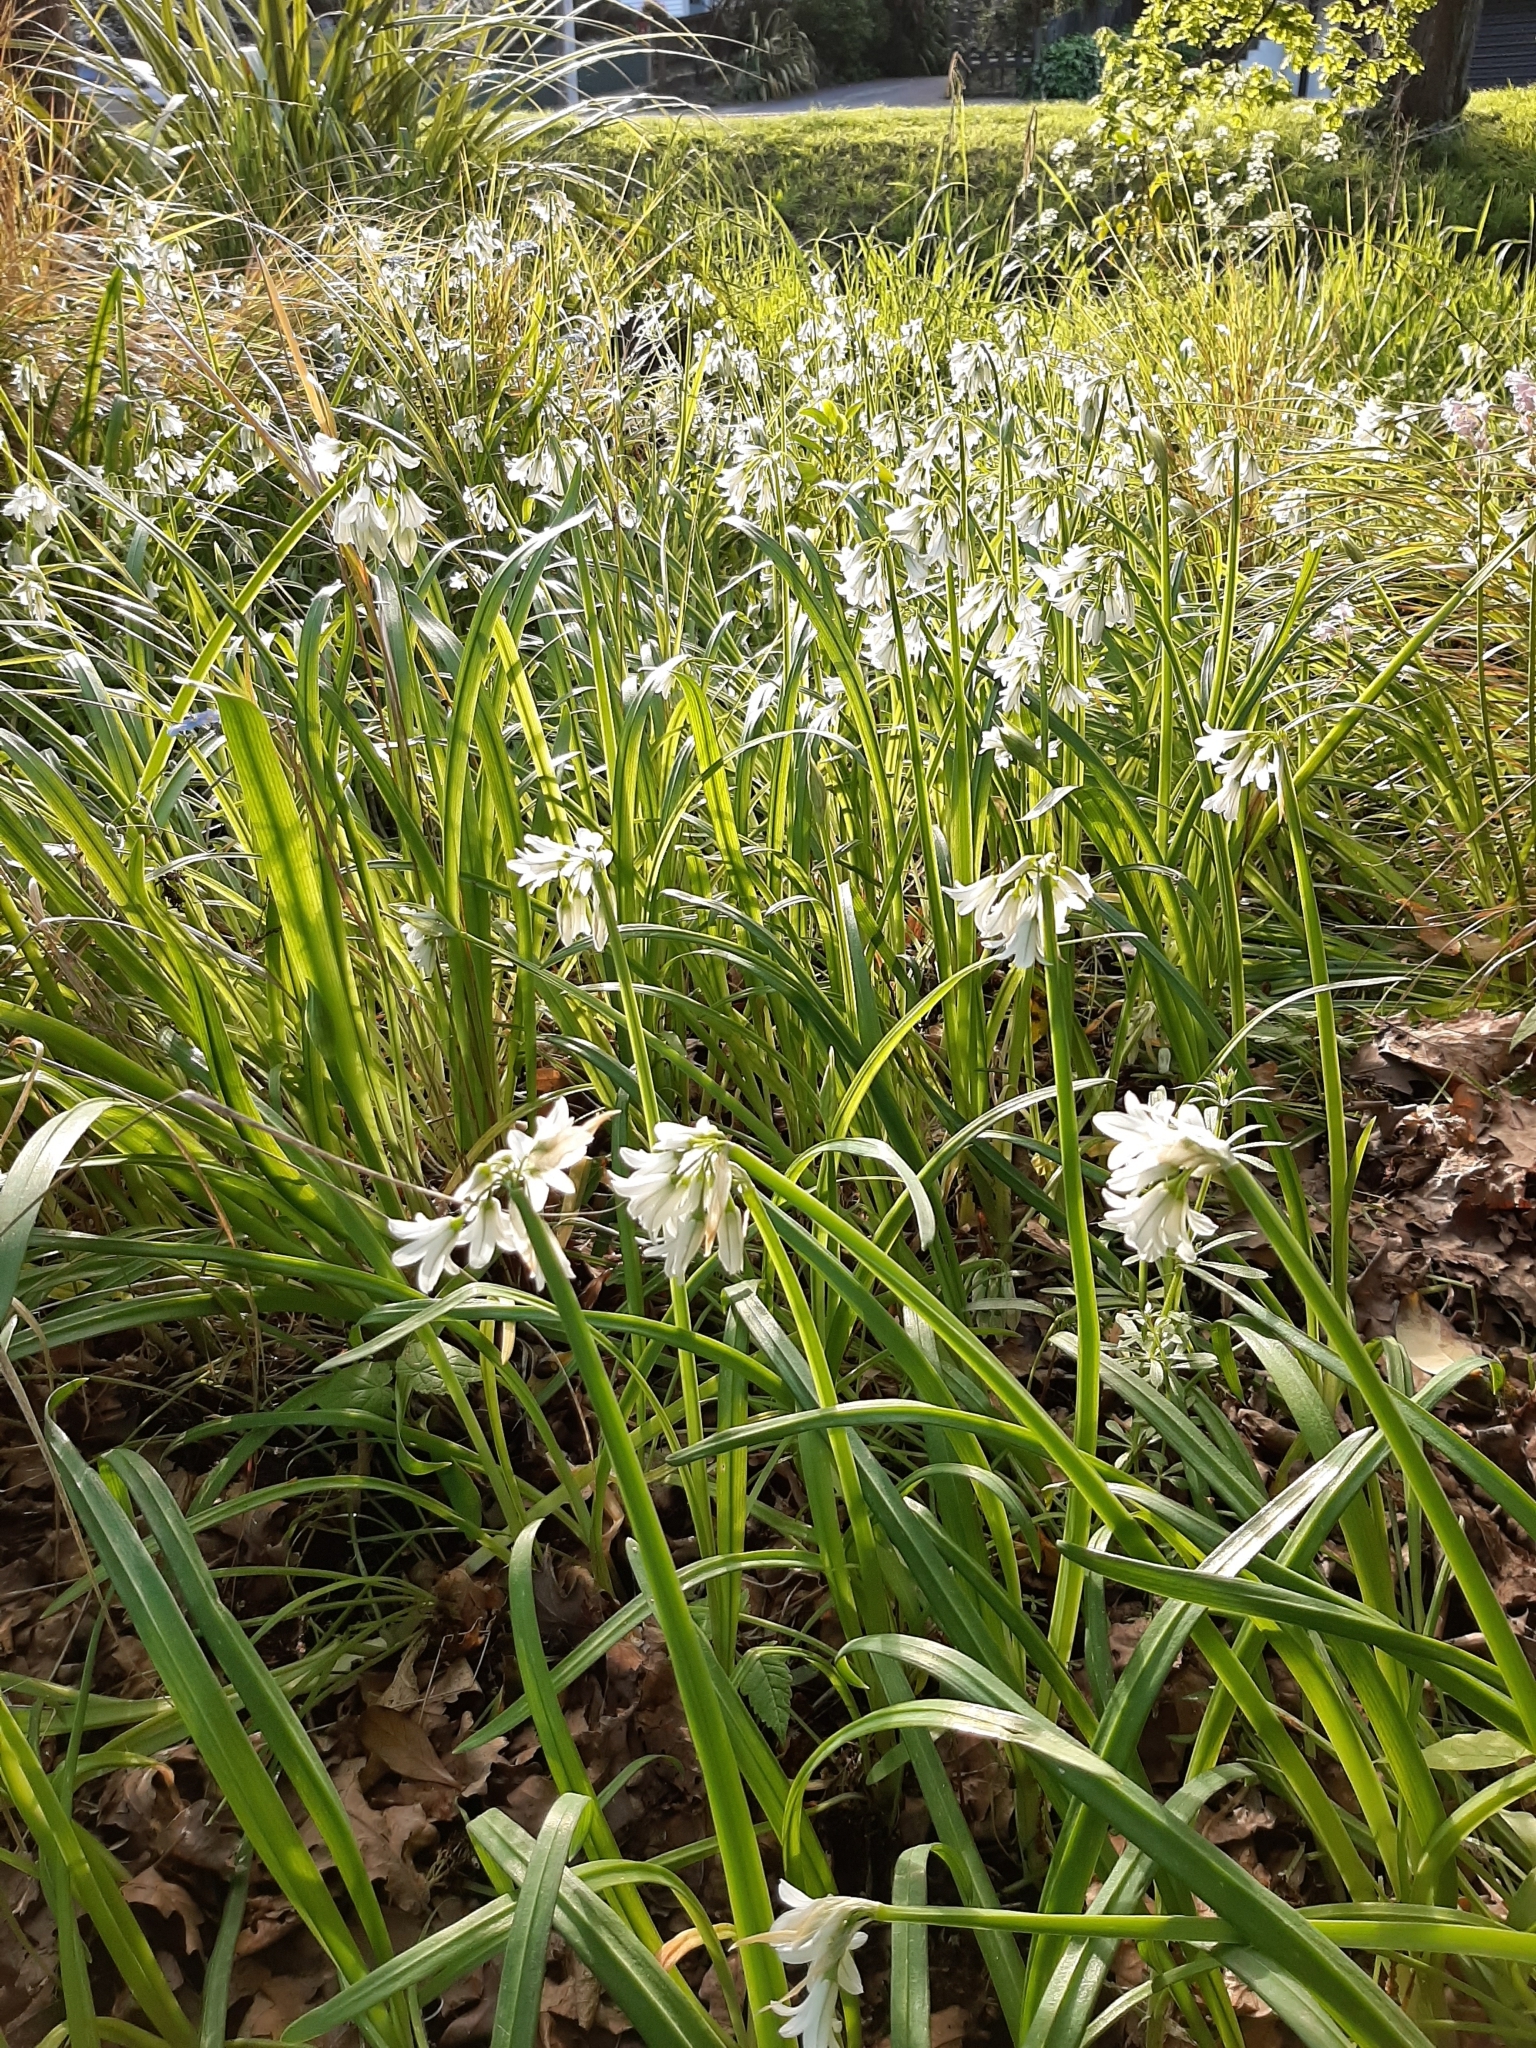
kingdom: Plantae
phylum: Tracheophyta
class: Liliopsida
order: Asparagales
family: Amaryllidaceae
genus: Allium
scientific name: Allium triquetrum
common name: Three-cornered garlic
